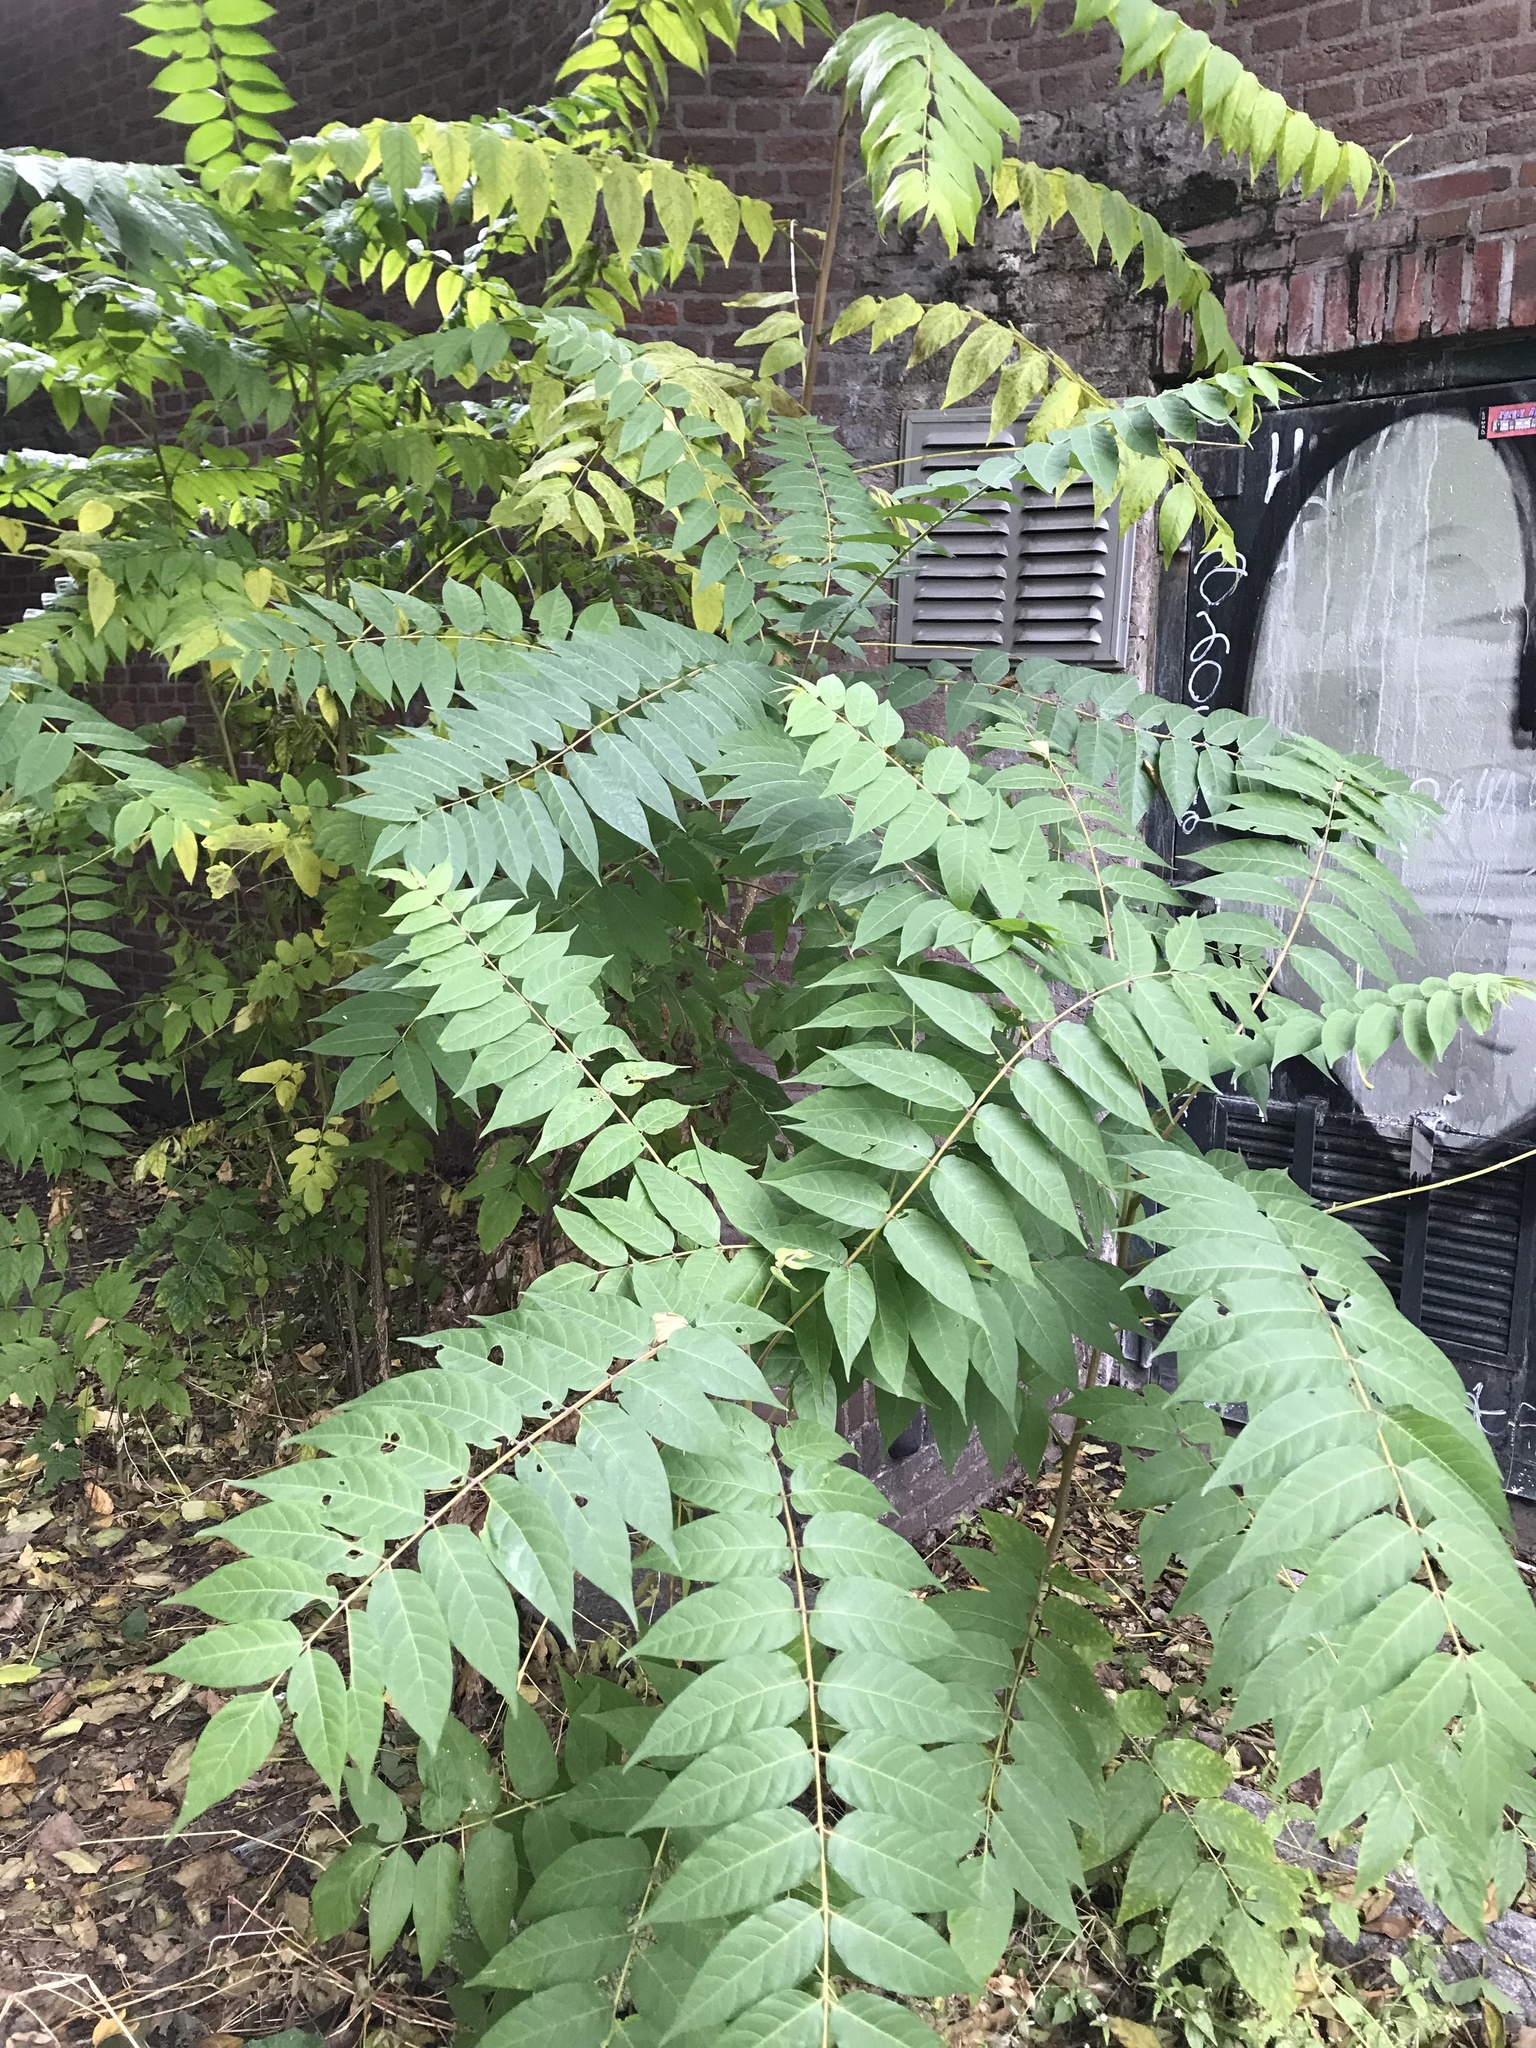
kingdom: Plantae
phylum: Tracheophyta
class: Magnoliopsida
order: Sapindales
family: Simaroubaceae
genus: Ailanthus
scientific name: Ailanthus altissima
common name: Tree-of-heaven
